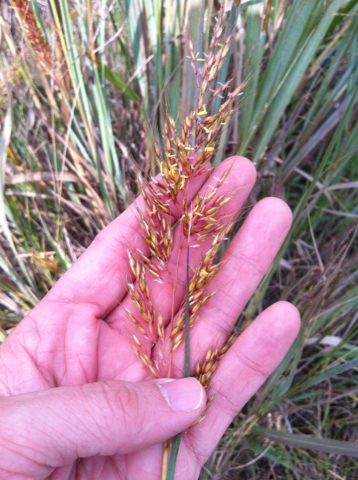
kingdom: Plantae
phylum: Tracheophyta
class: Liliopsida
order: Poales
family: Poaceae
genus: Sorghastrum
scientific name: Sorghastrum nutans
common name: Indian grass
